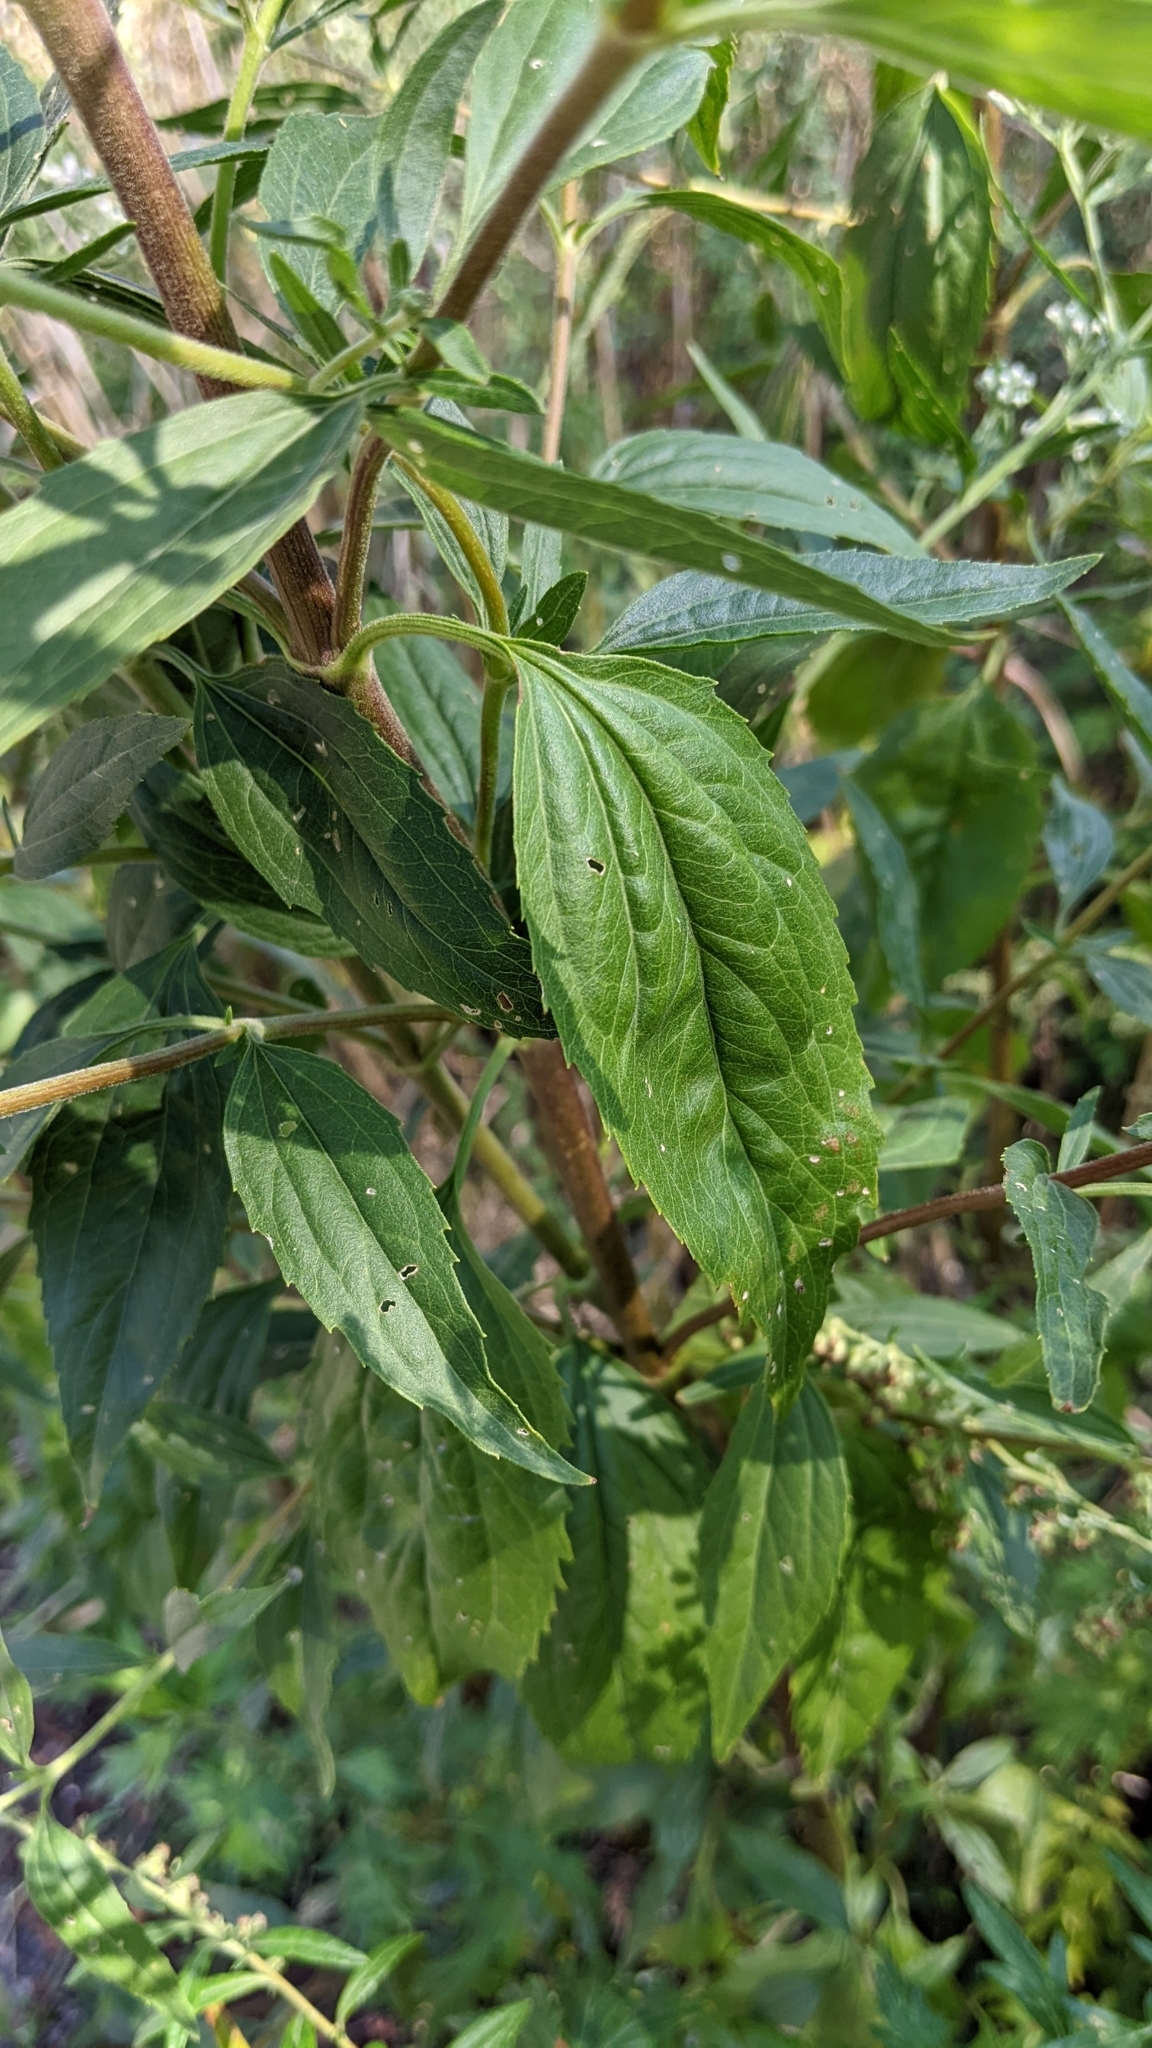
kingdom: Plantae
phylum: Tracheophyta
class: Magnoliopsida
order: Asterales
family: Asteraceae
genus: Eupatorium
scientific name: Eupatorium serotinum
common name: Late boneset
